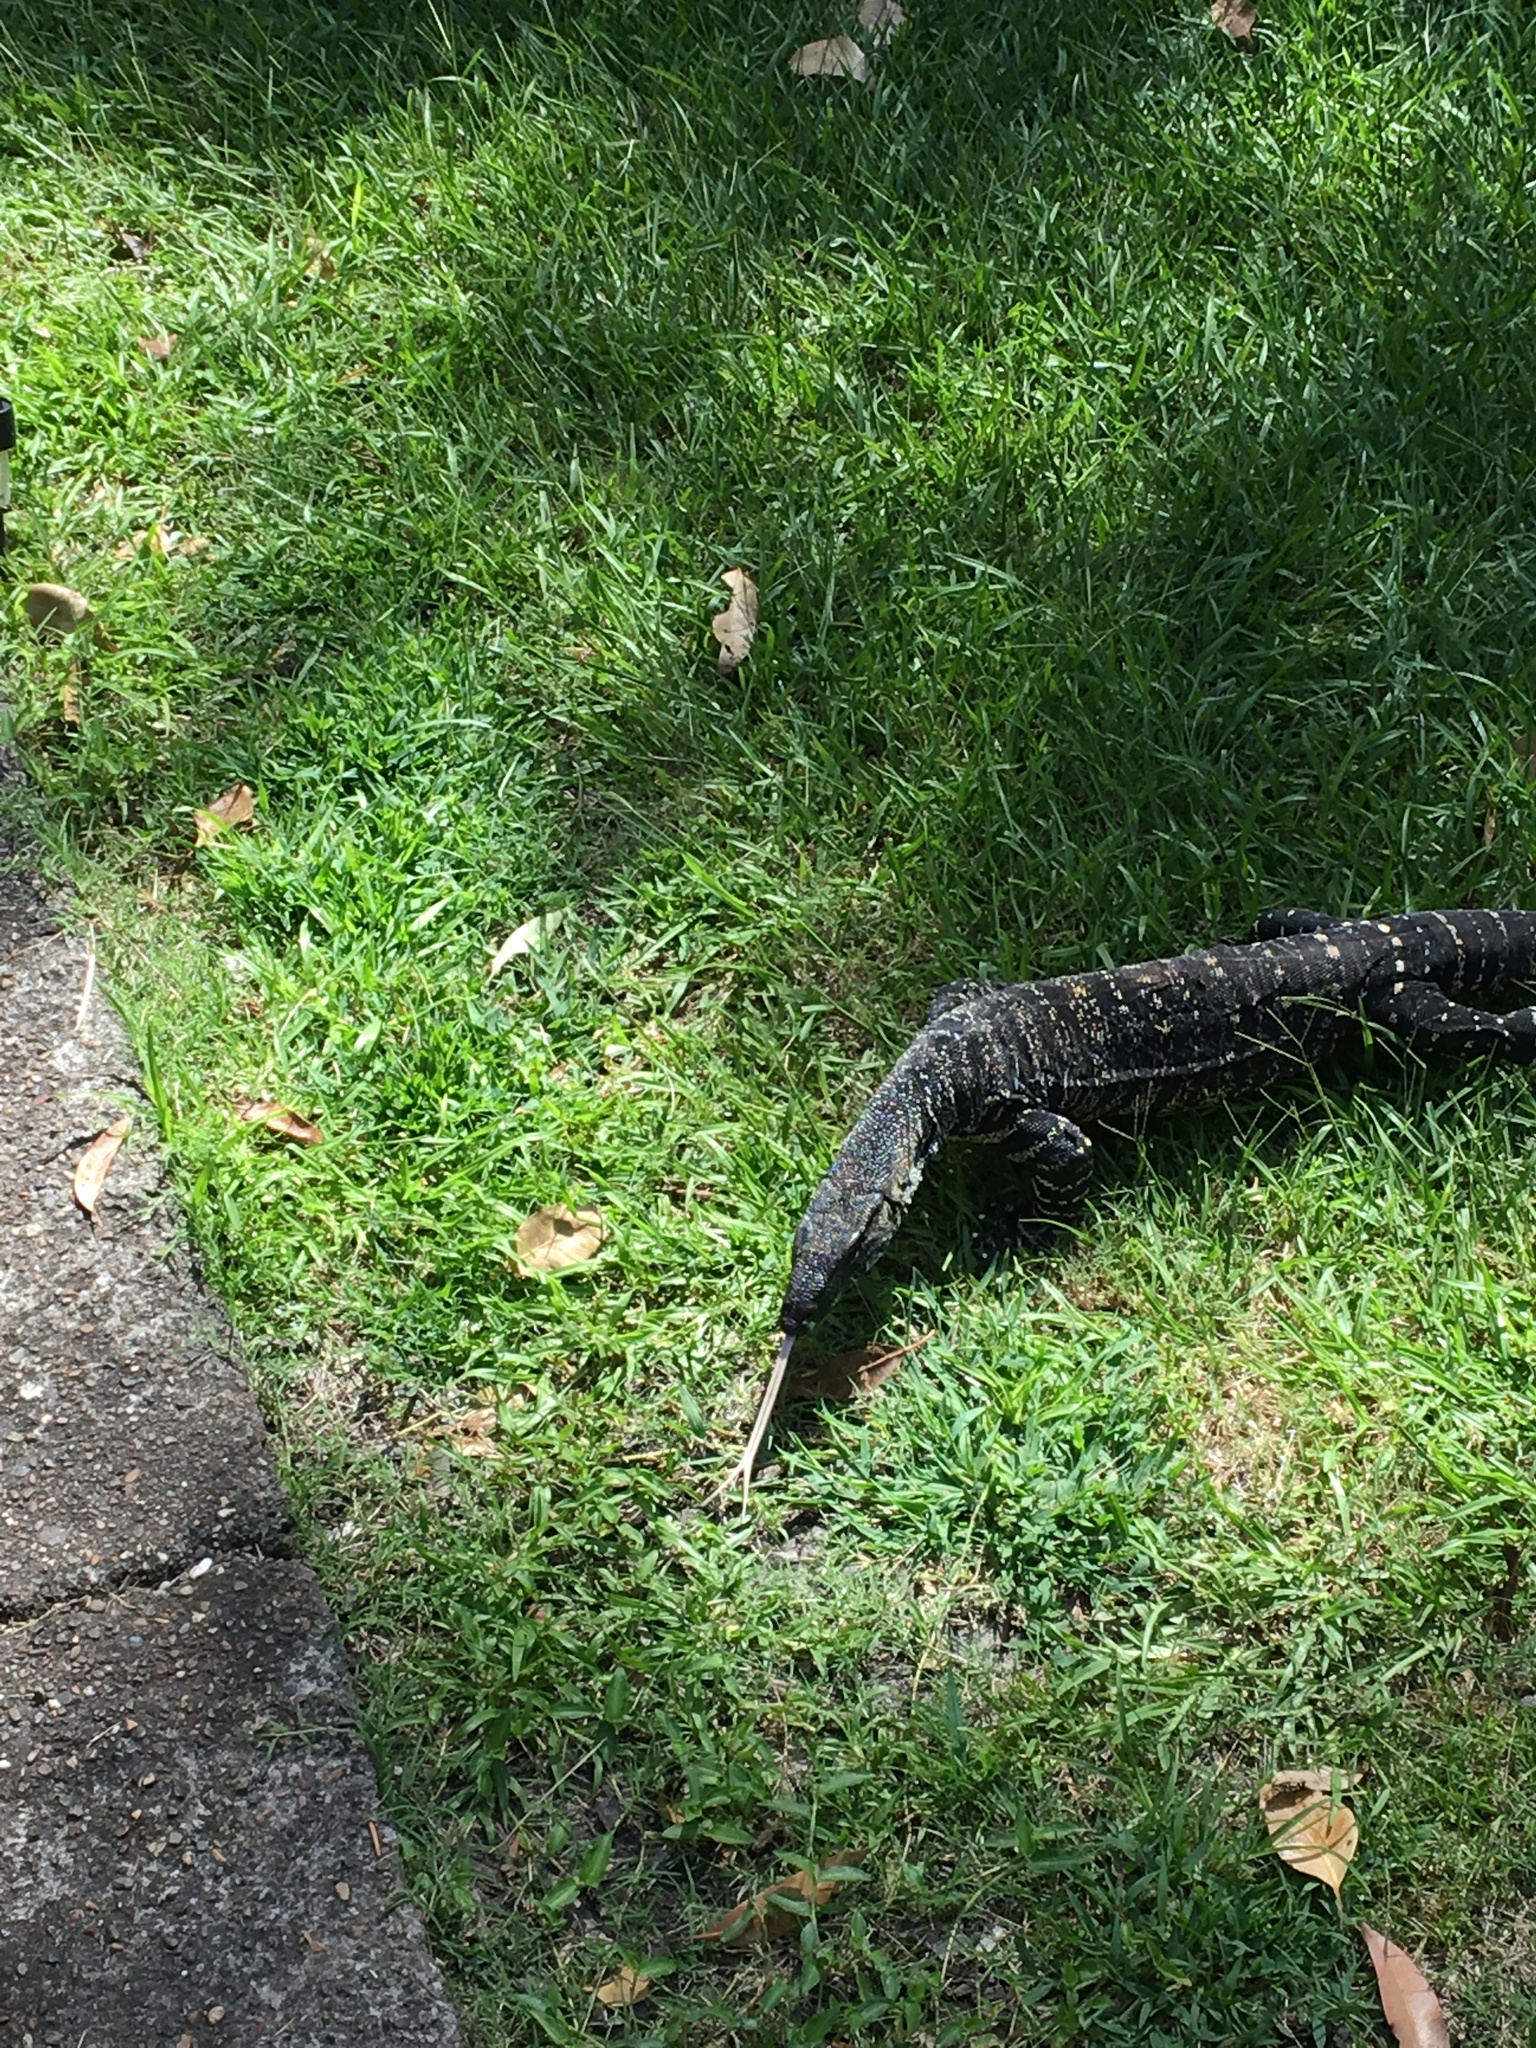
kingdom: Animalia
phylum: Chordata
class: Squamata
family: Varanidae
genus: Varanus
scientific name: Varanus varius
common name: Lace monitor
